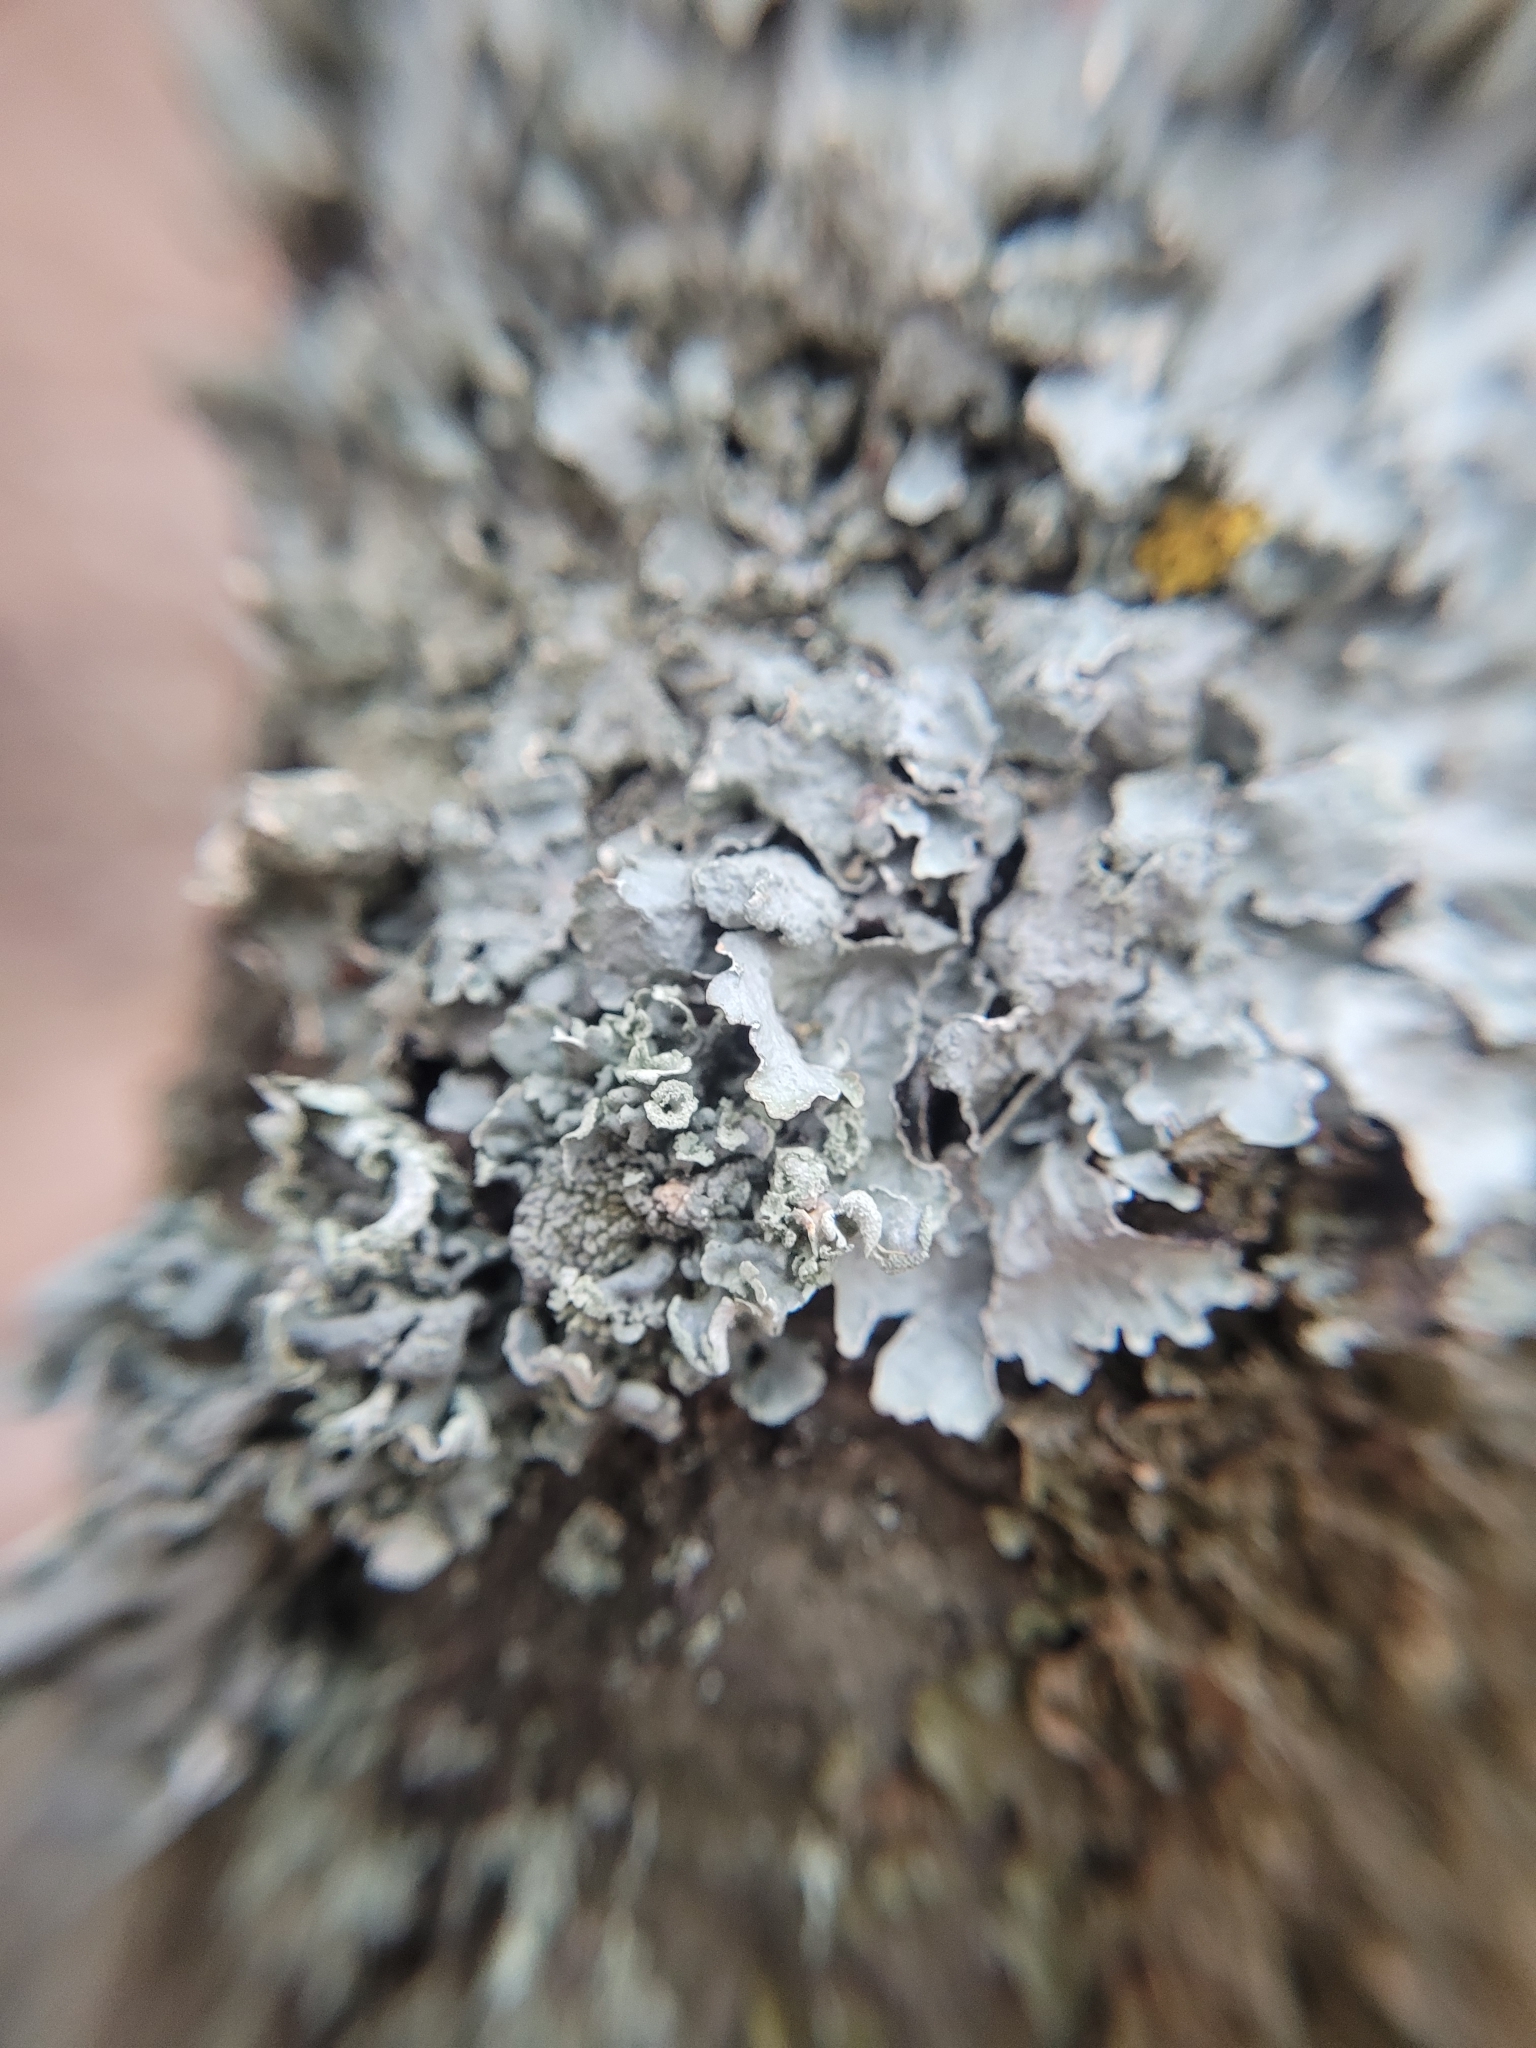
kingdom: Fungi
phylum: Ascomycota
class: Lecanoromycetes
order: Lecanorales
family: Parmeliaceae
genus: Parmelia
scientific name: Parmelia sulcata
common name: Netted shield lichen
